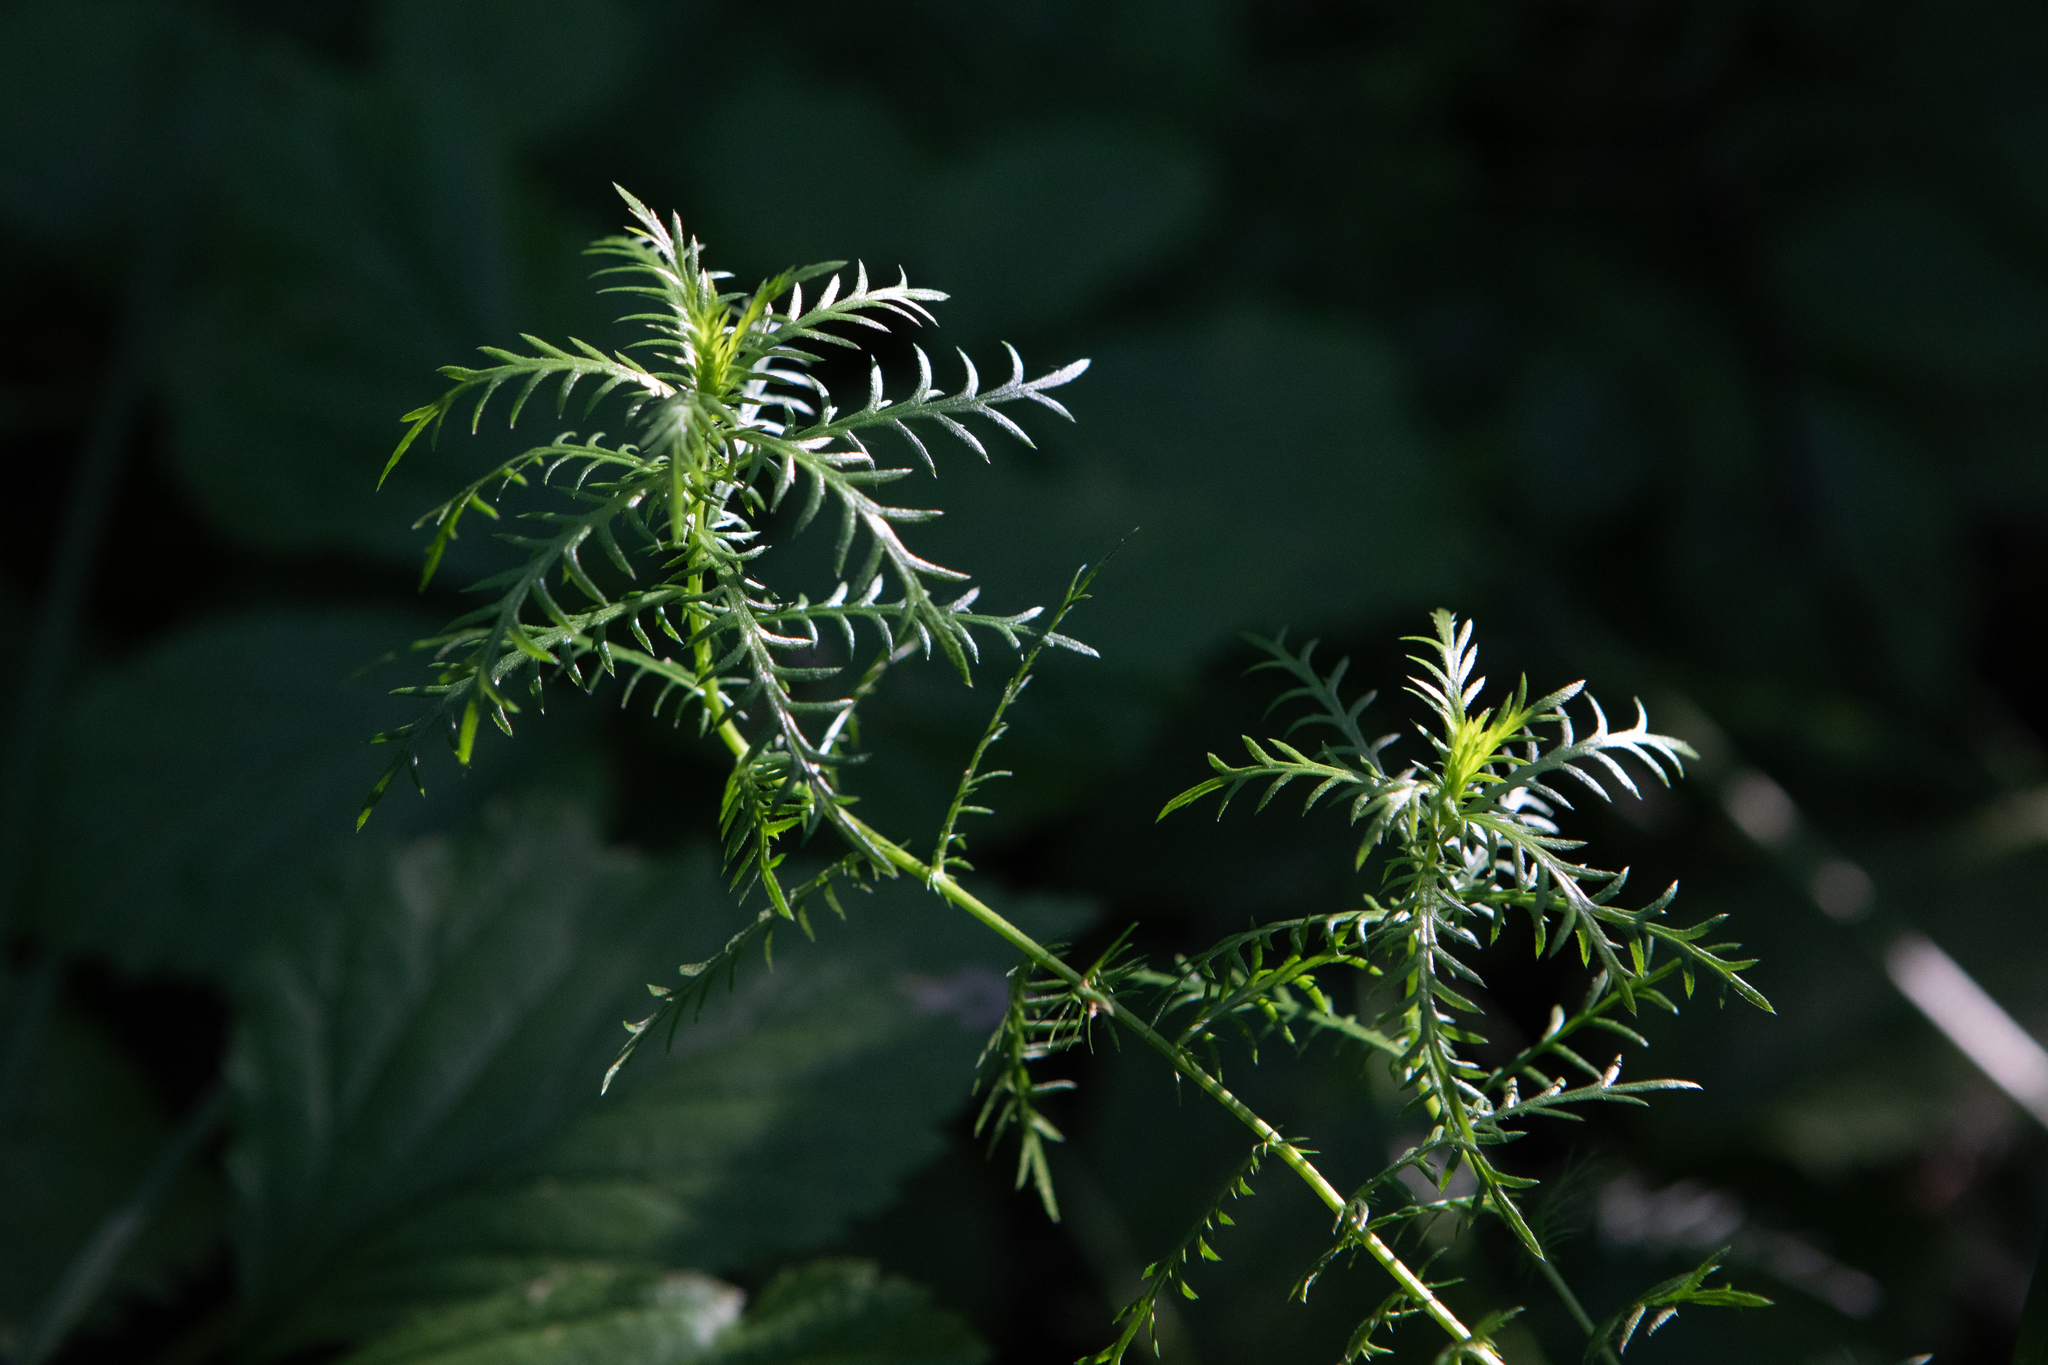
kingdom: Plantae
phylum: Tracheophyta
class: Magnoliopsida
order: Asterales
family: Asteraceae
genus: Achillea
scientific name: Achillea impatiens
